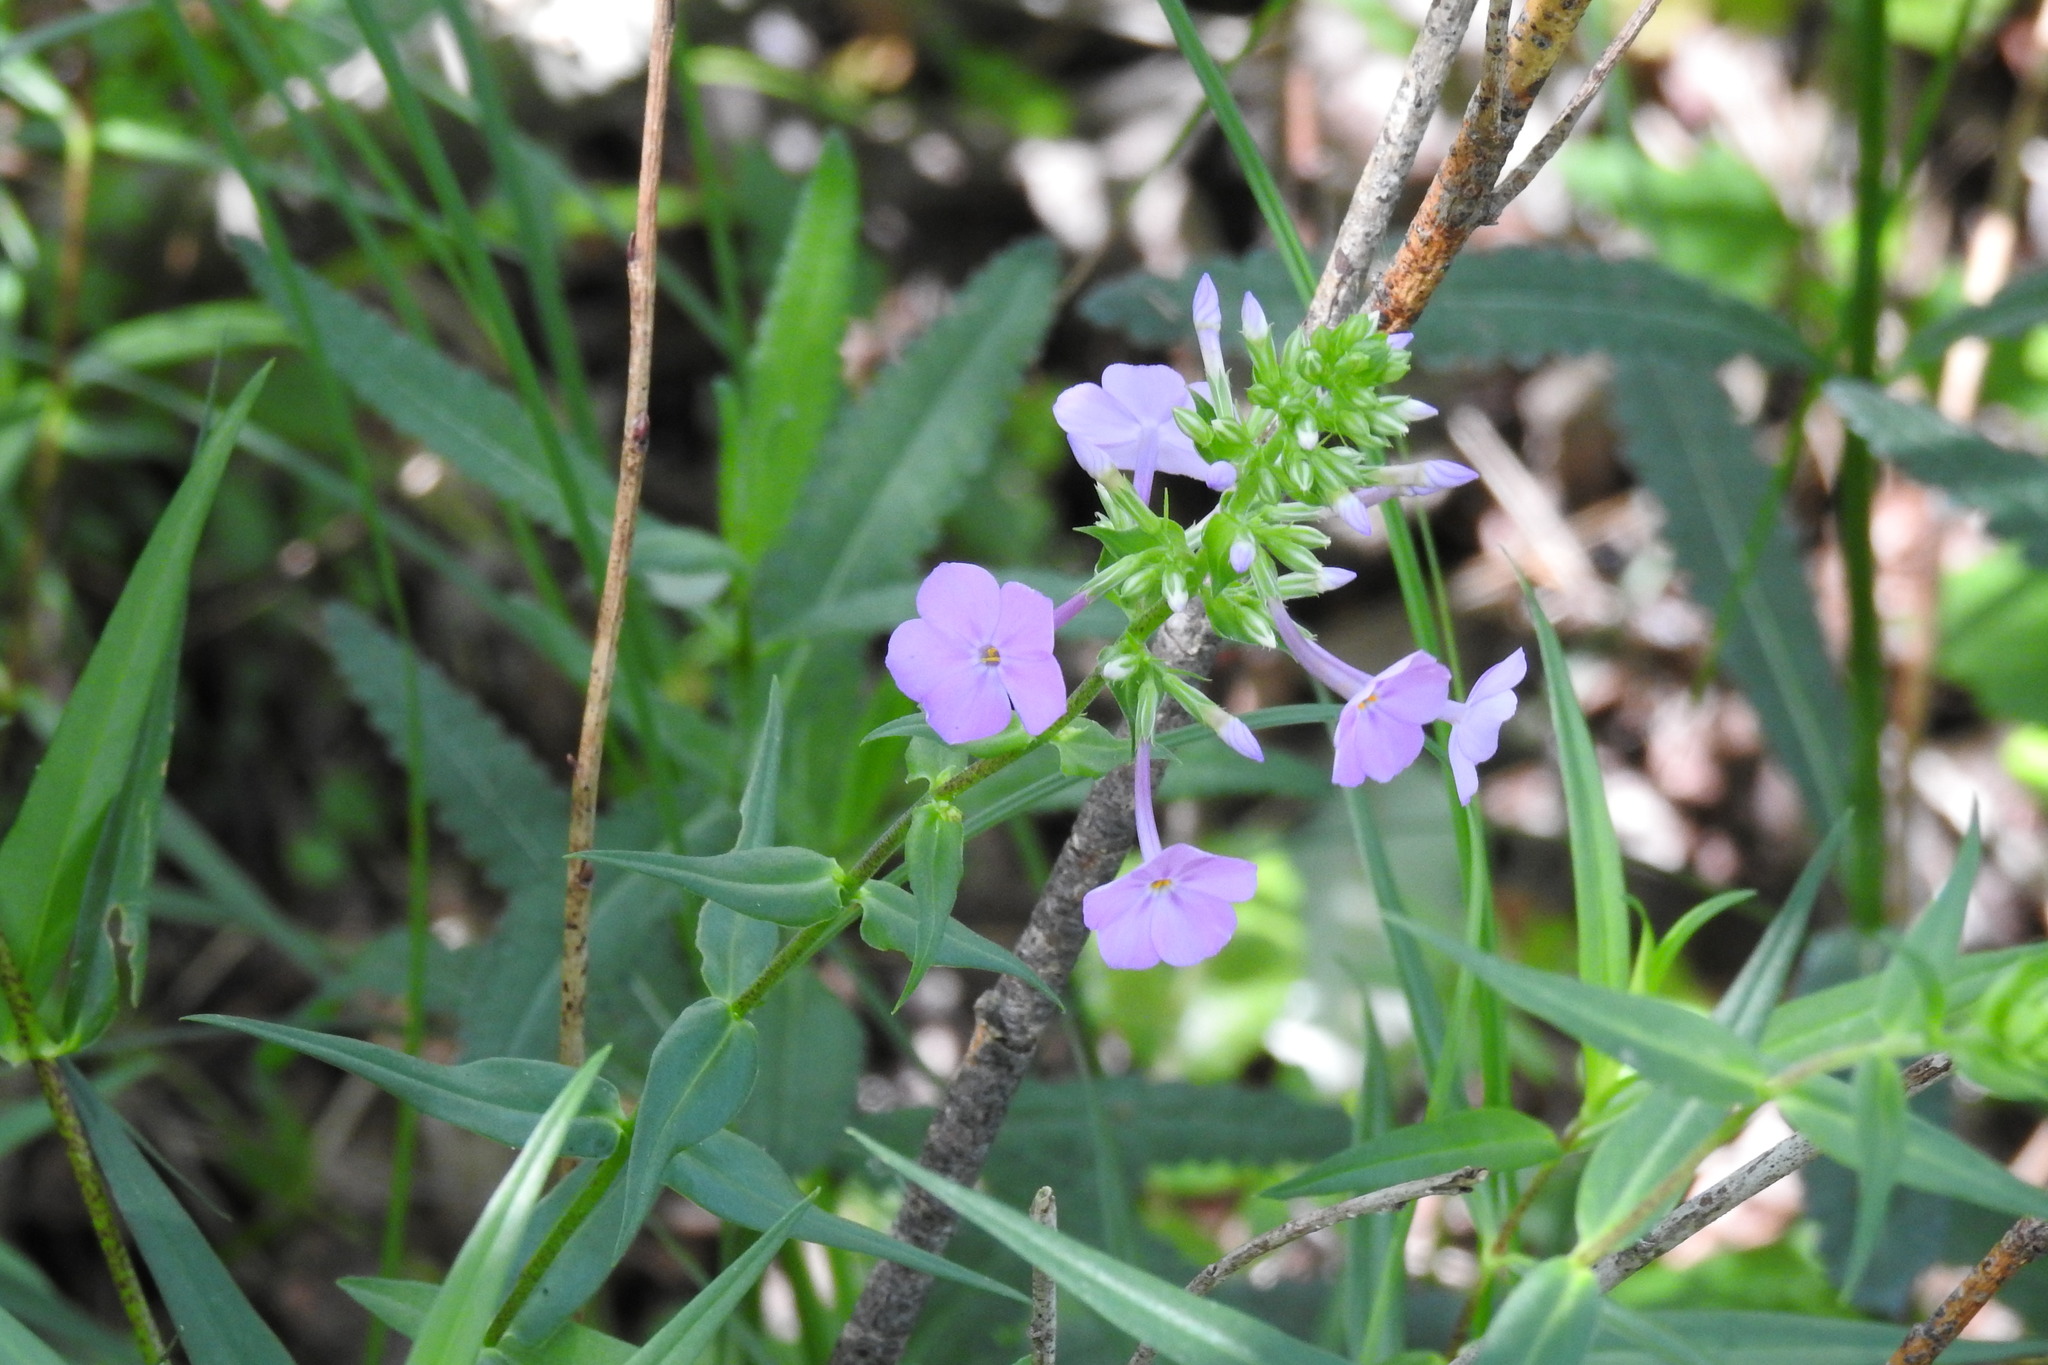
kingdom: Plantae
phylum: Tracheophyta
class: Magnoliopsida
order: Ericales
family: Polemoniaceae
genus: Phlox
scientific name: Phlox maculata
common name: Meadow phlox
